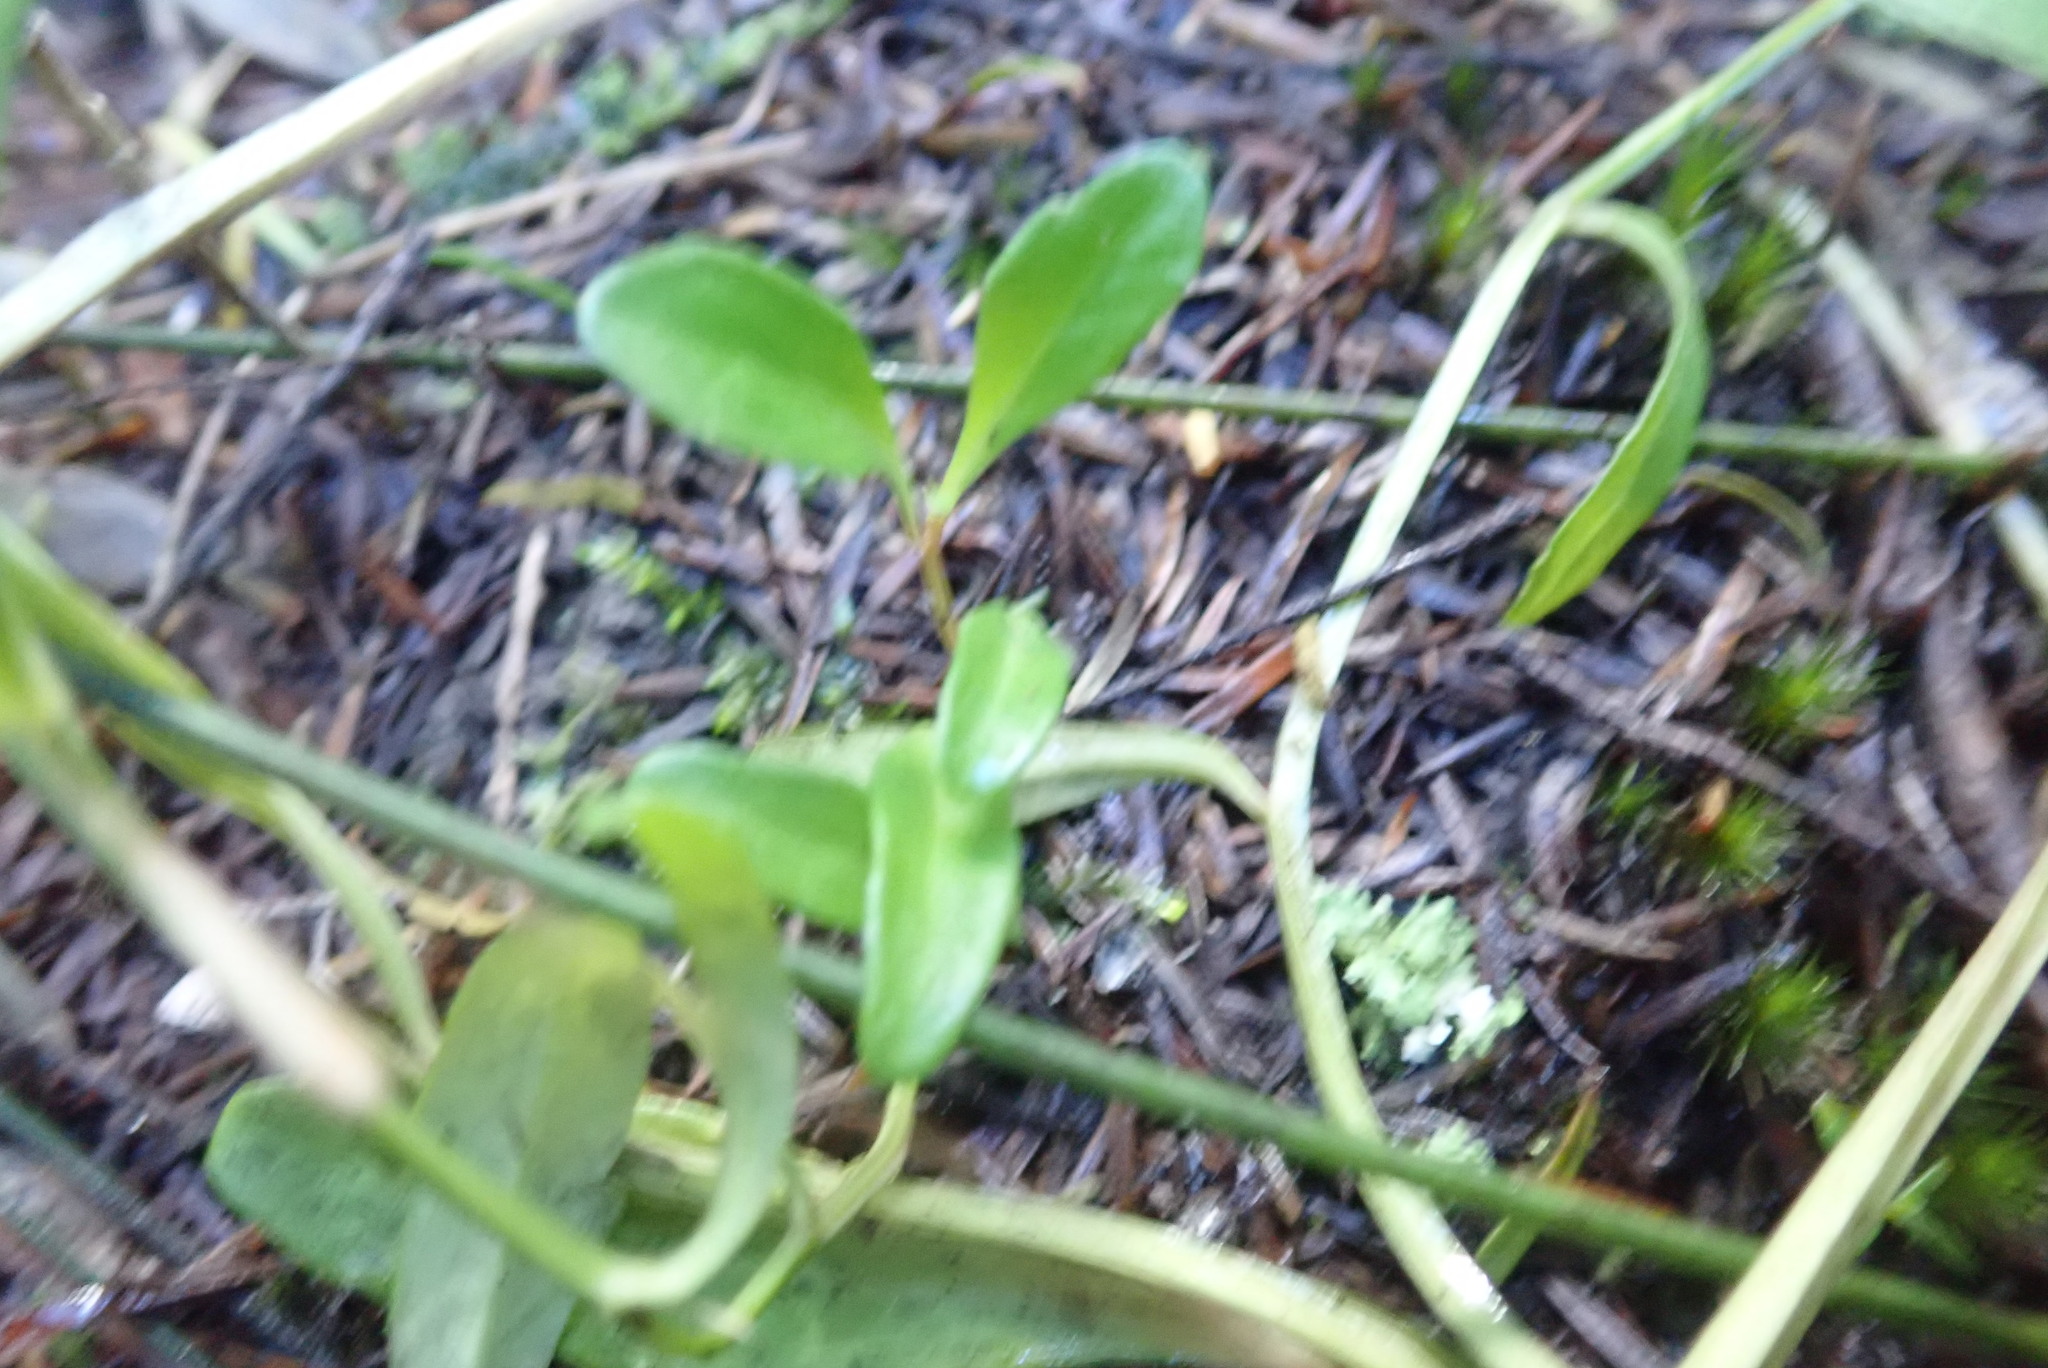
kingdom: Plantae
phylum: Tracheophyta
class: Magnoliopsida
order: Asterales
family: Campanulaceae
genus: Lobelia
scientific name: Lobelia anceps
